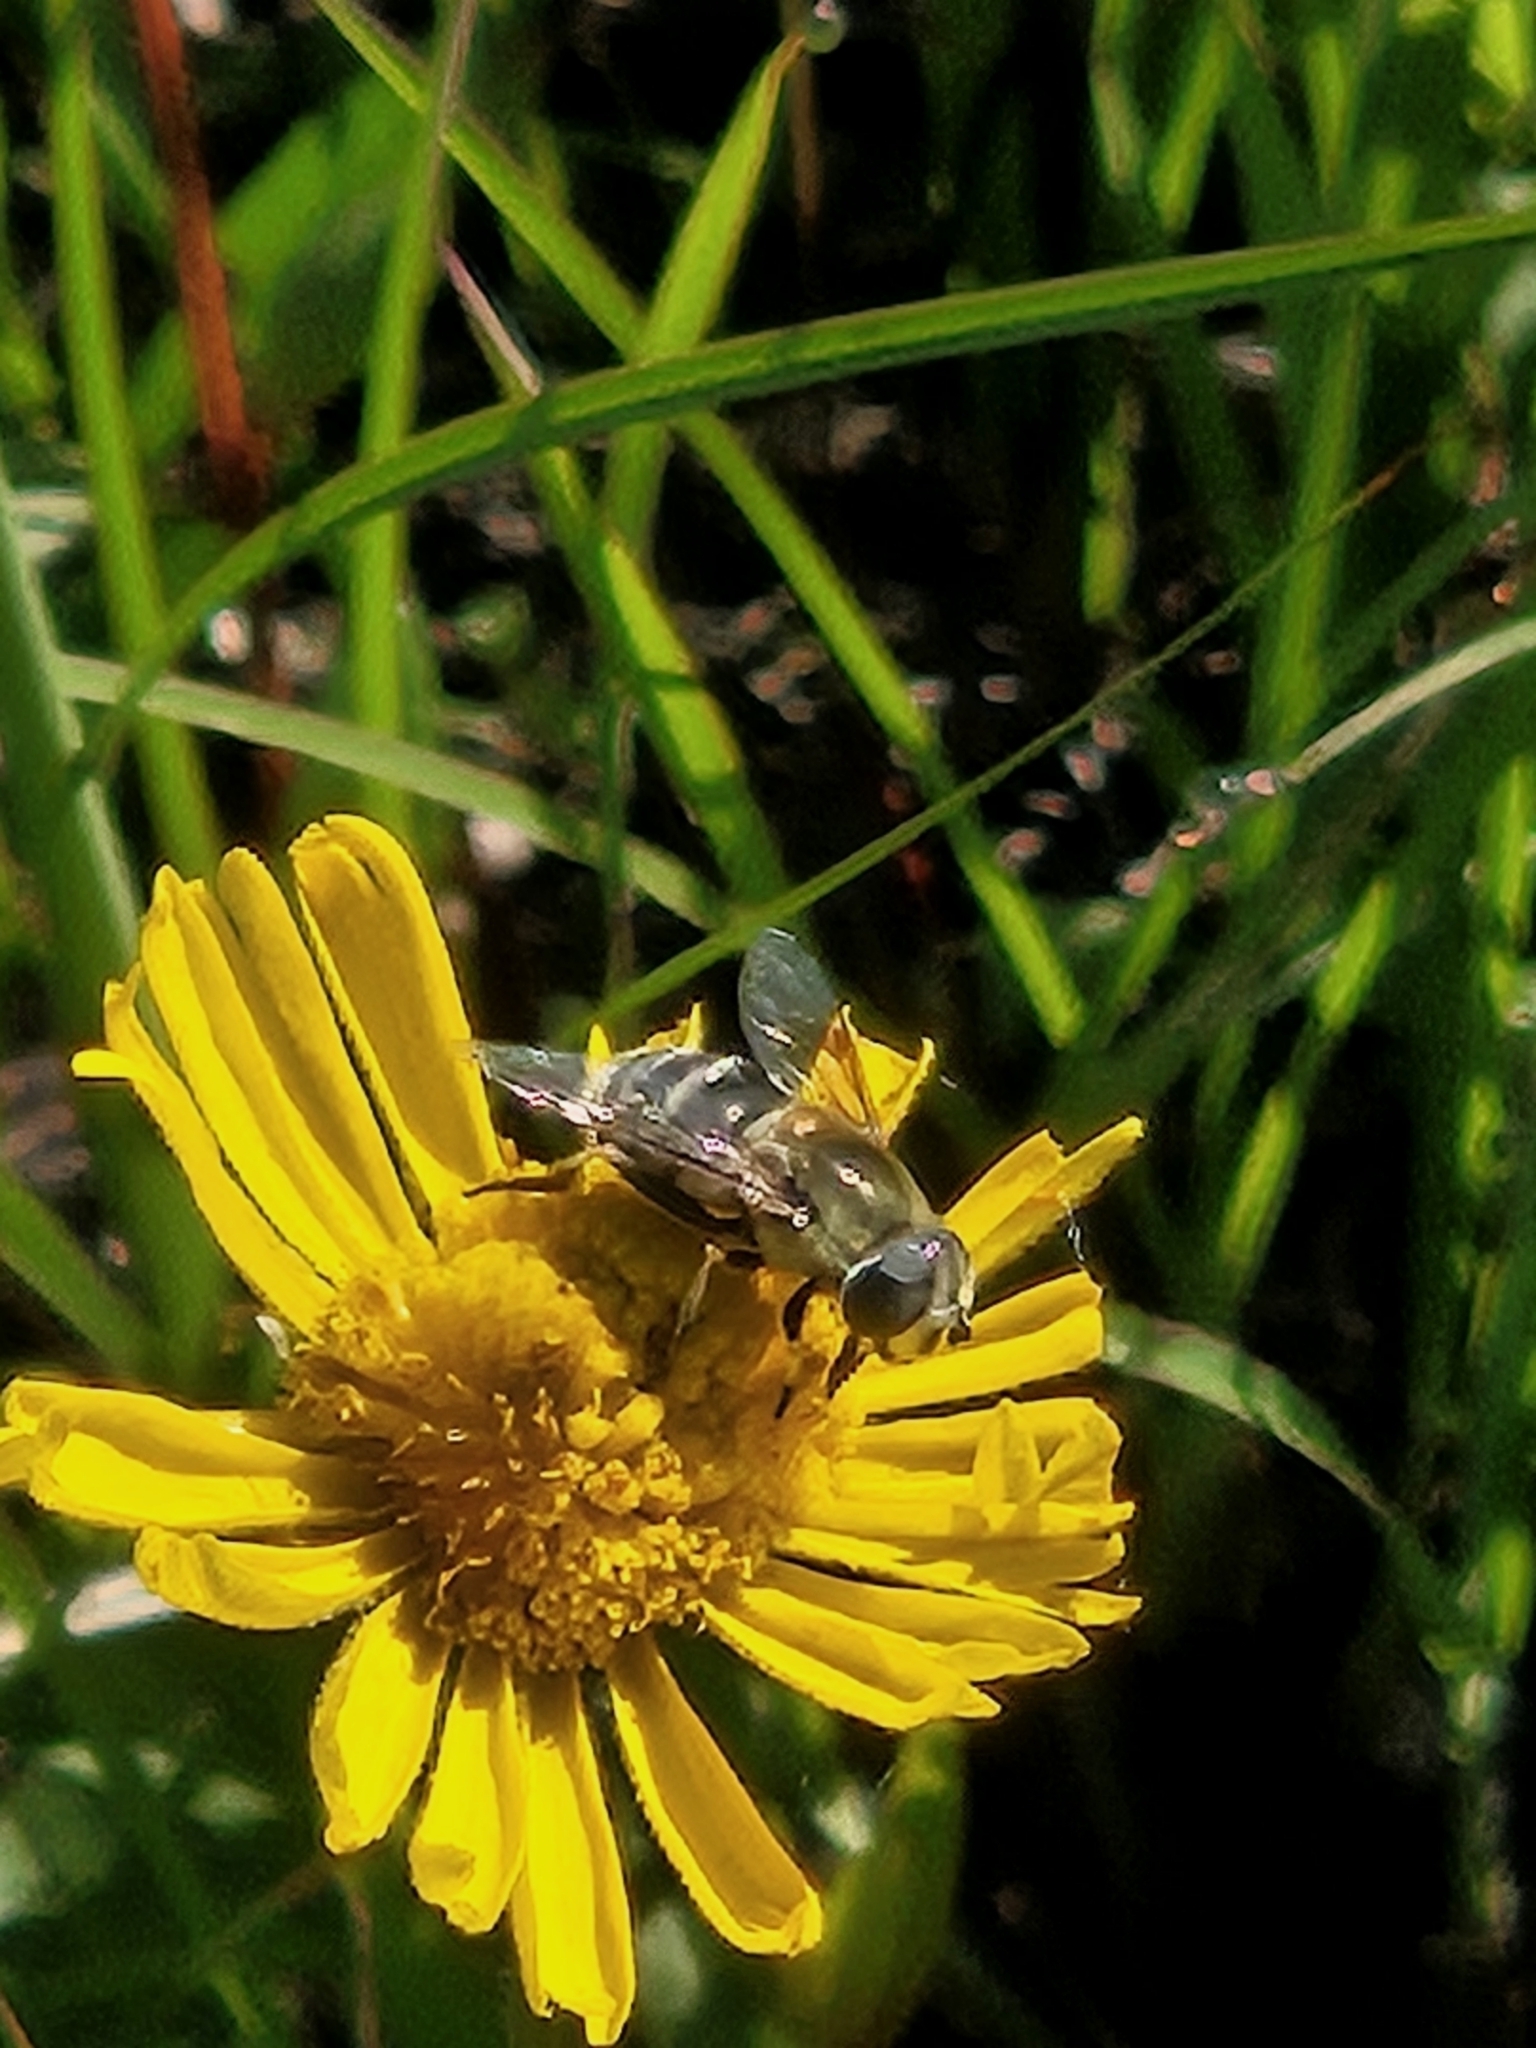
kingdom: Animalia
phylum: Arthropoda
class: Insecta
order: Diptera
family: Syrphidae
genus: Eristalis
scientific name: Eristalis stipator
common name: Yellow-shouldered drone fly
